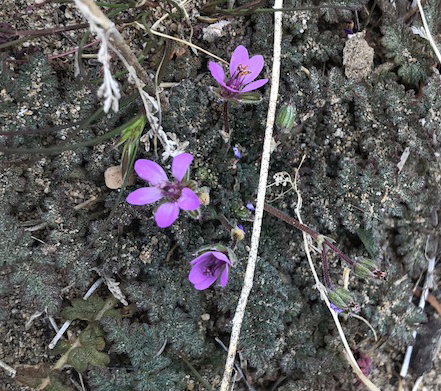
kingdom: Plantae
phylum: Tracheophyta
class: Magnoliopsida
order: Geraniales
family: Geraniaceae
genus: Erodium
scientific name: Erodium cicutarium
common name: Common stork's-bill
